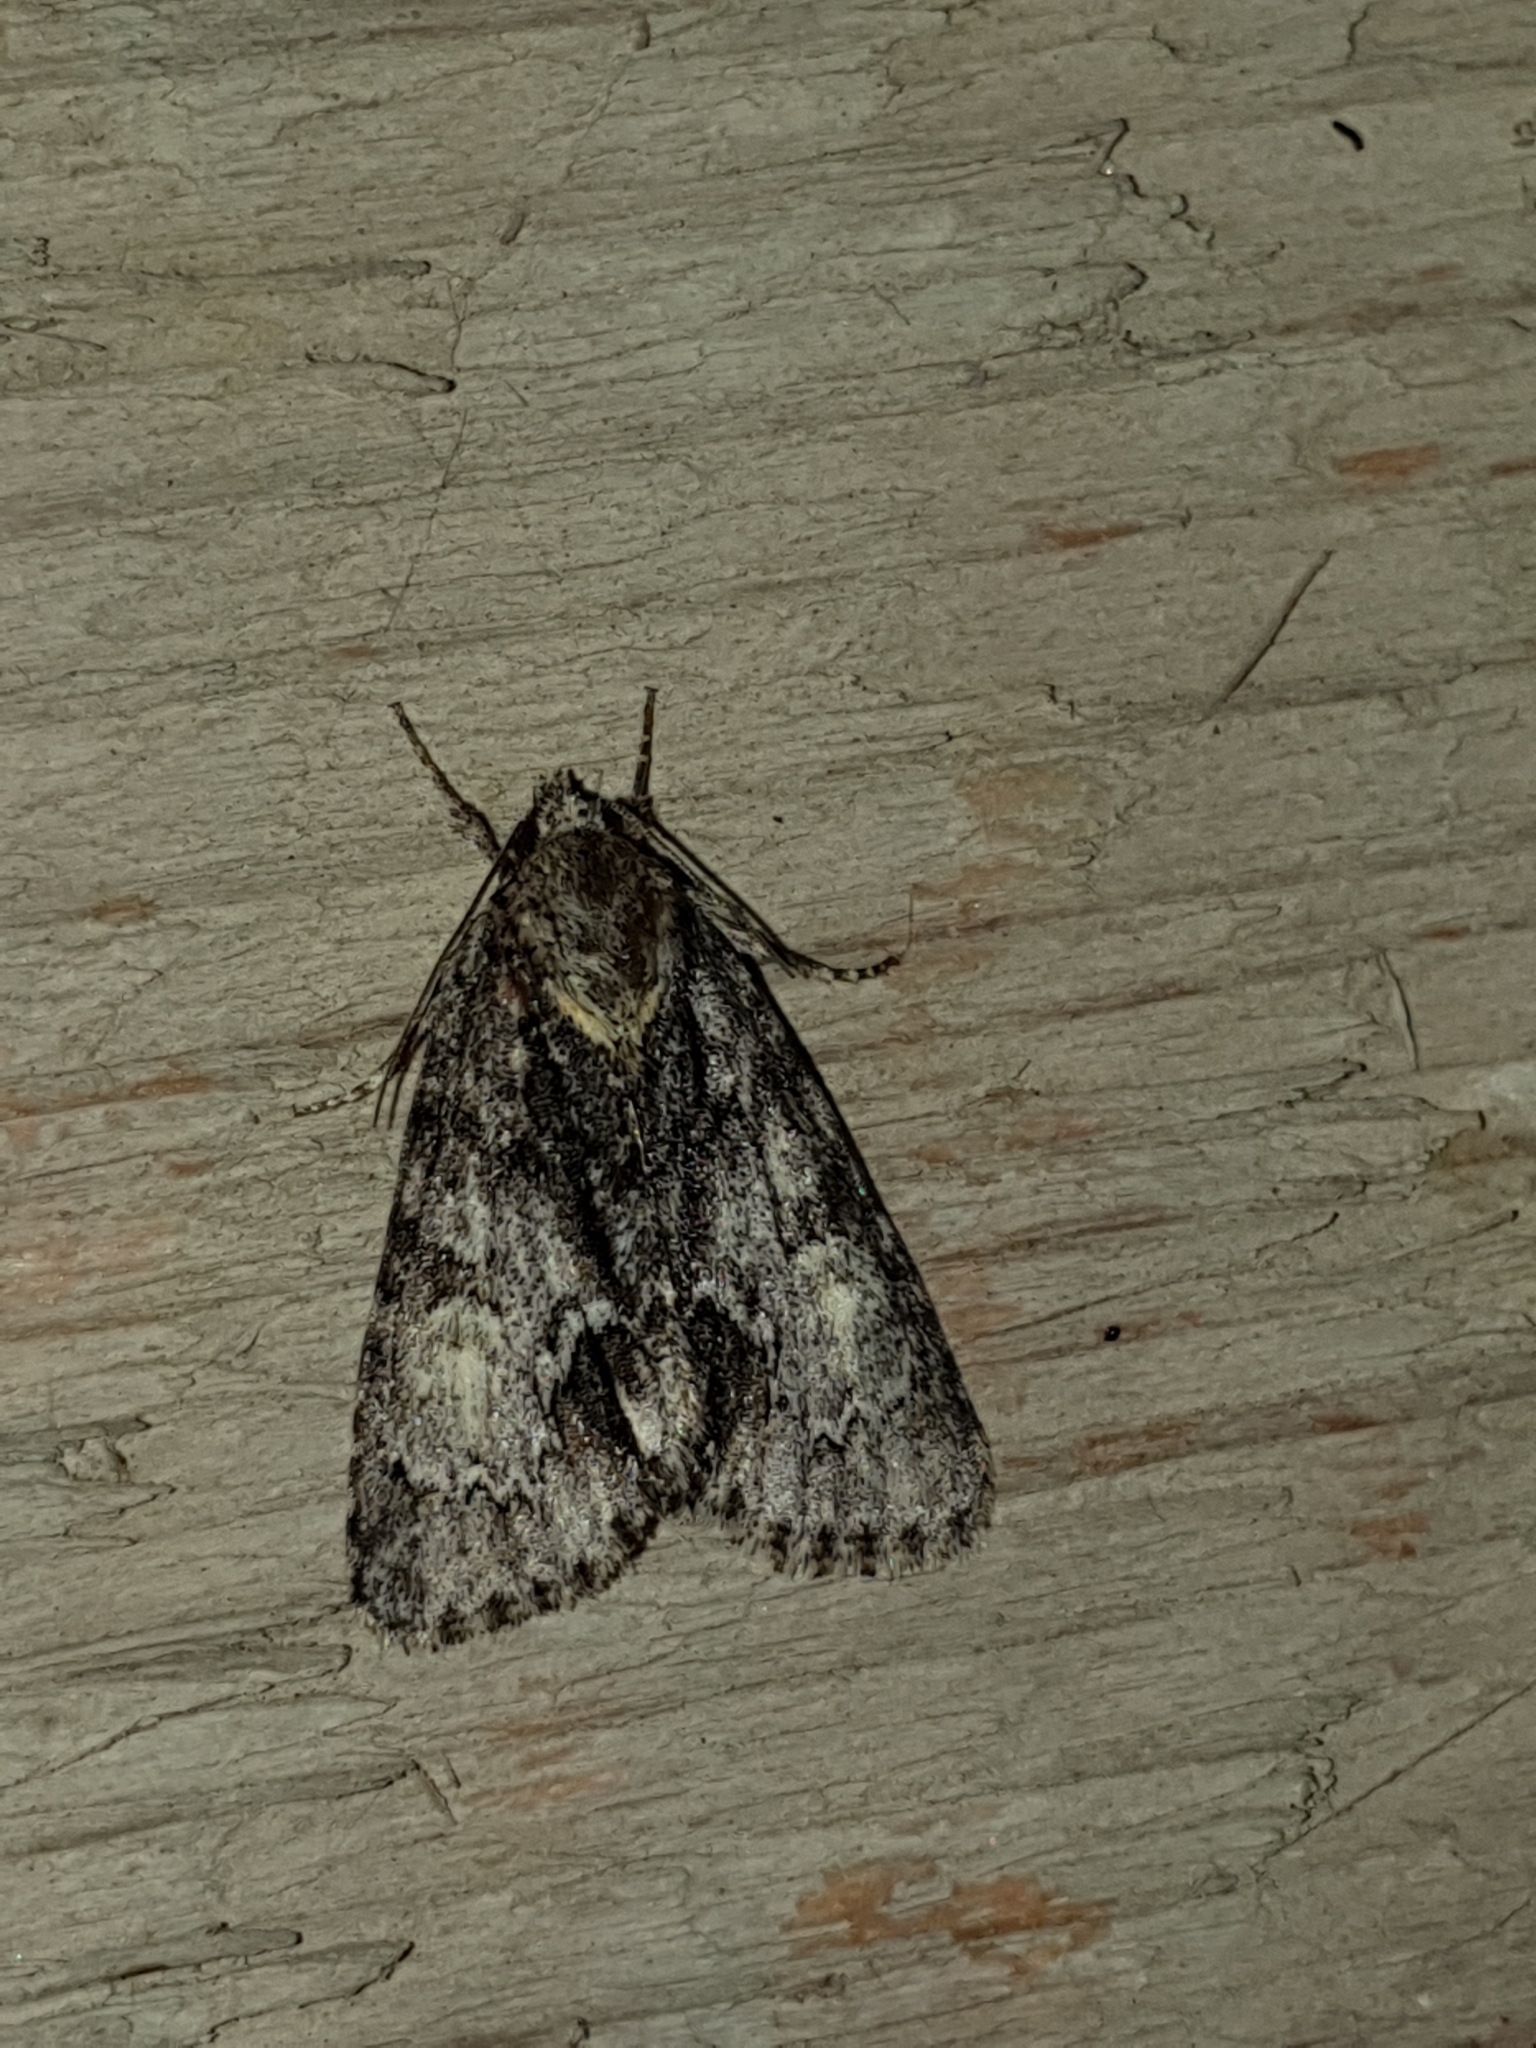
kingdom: Animalia
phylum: Arthropoda
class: Insecta
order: Lepidoptera
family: Noctuidae
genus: Acronicta
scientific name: Acronicta strigosa
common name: Marsh dagger
